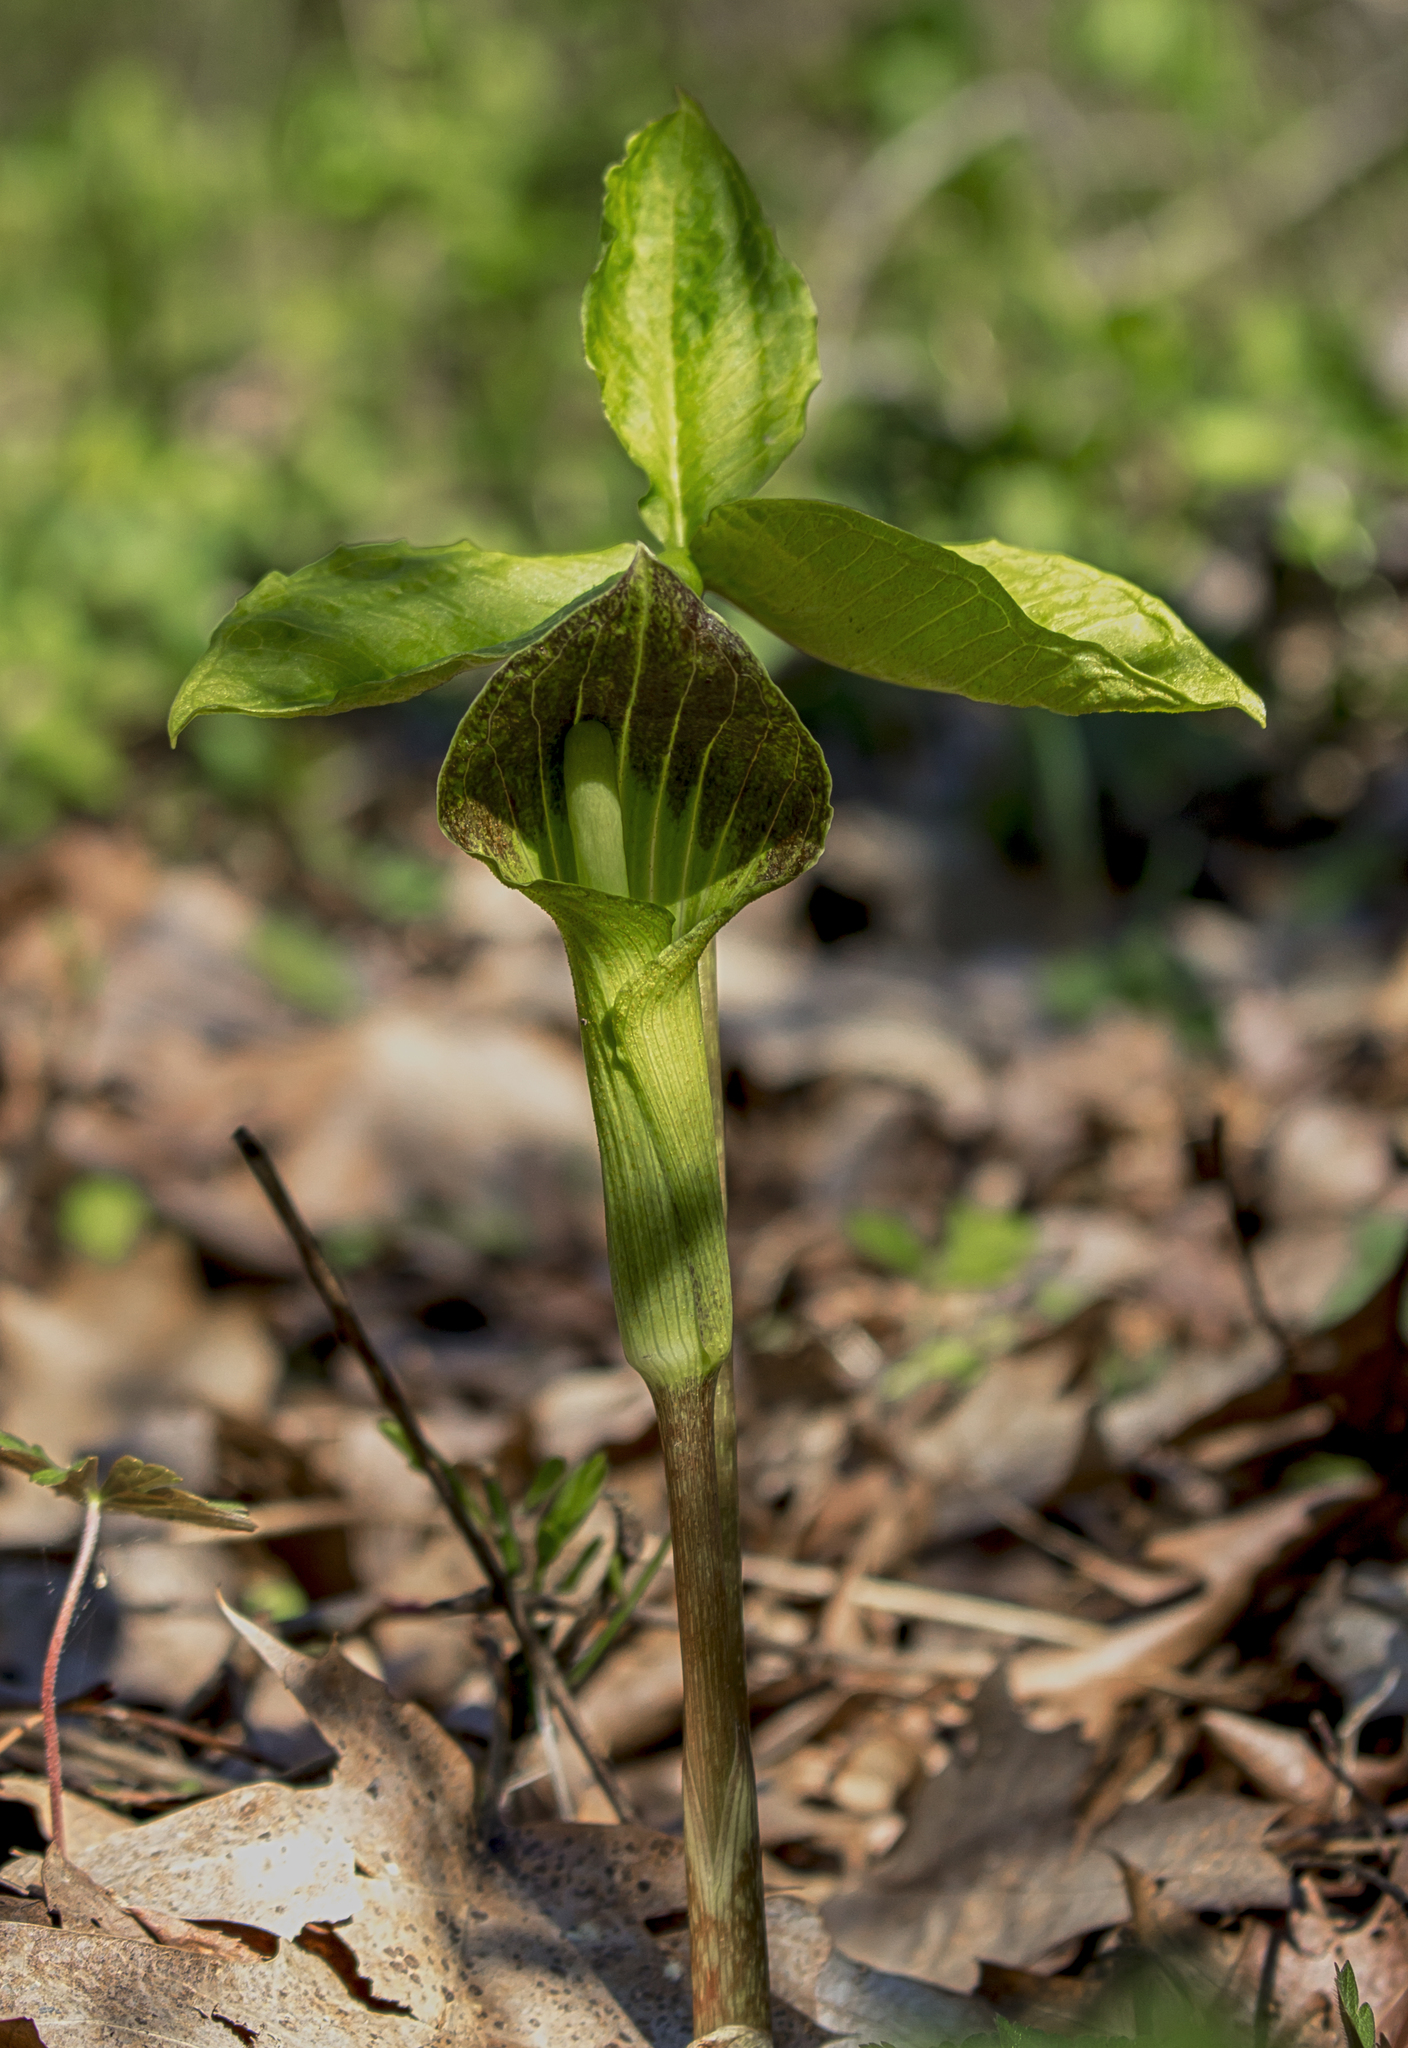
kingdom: Plantae
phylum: Tracheophyta
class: Liliopsida
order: Alismatales
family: Araceae
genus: Arisaema
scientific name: Arisaema triphyllum
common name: Jack-in-the-pulpit
